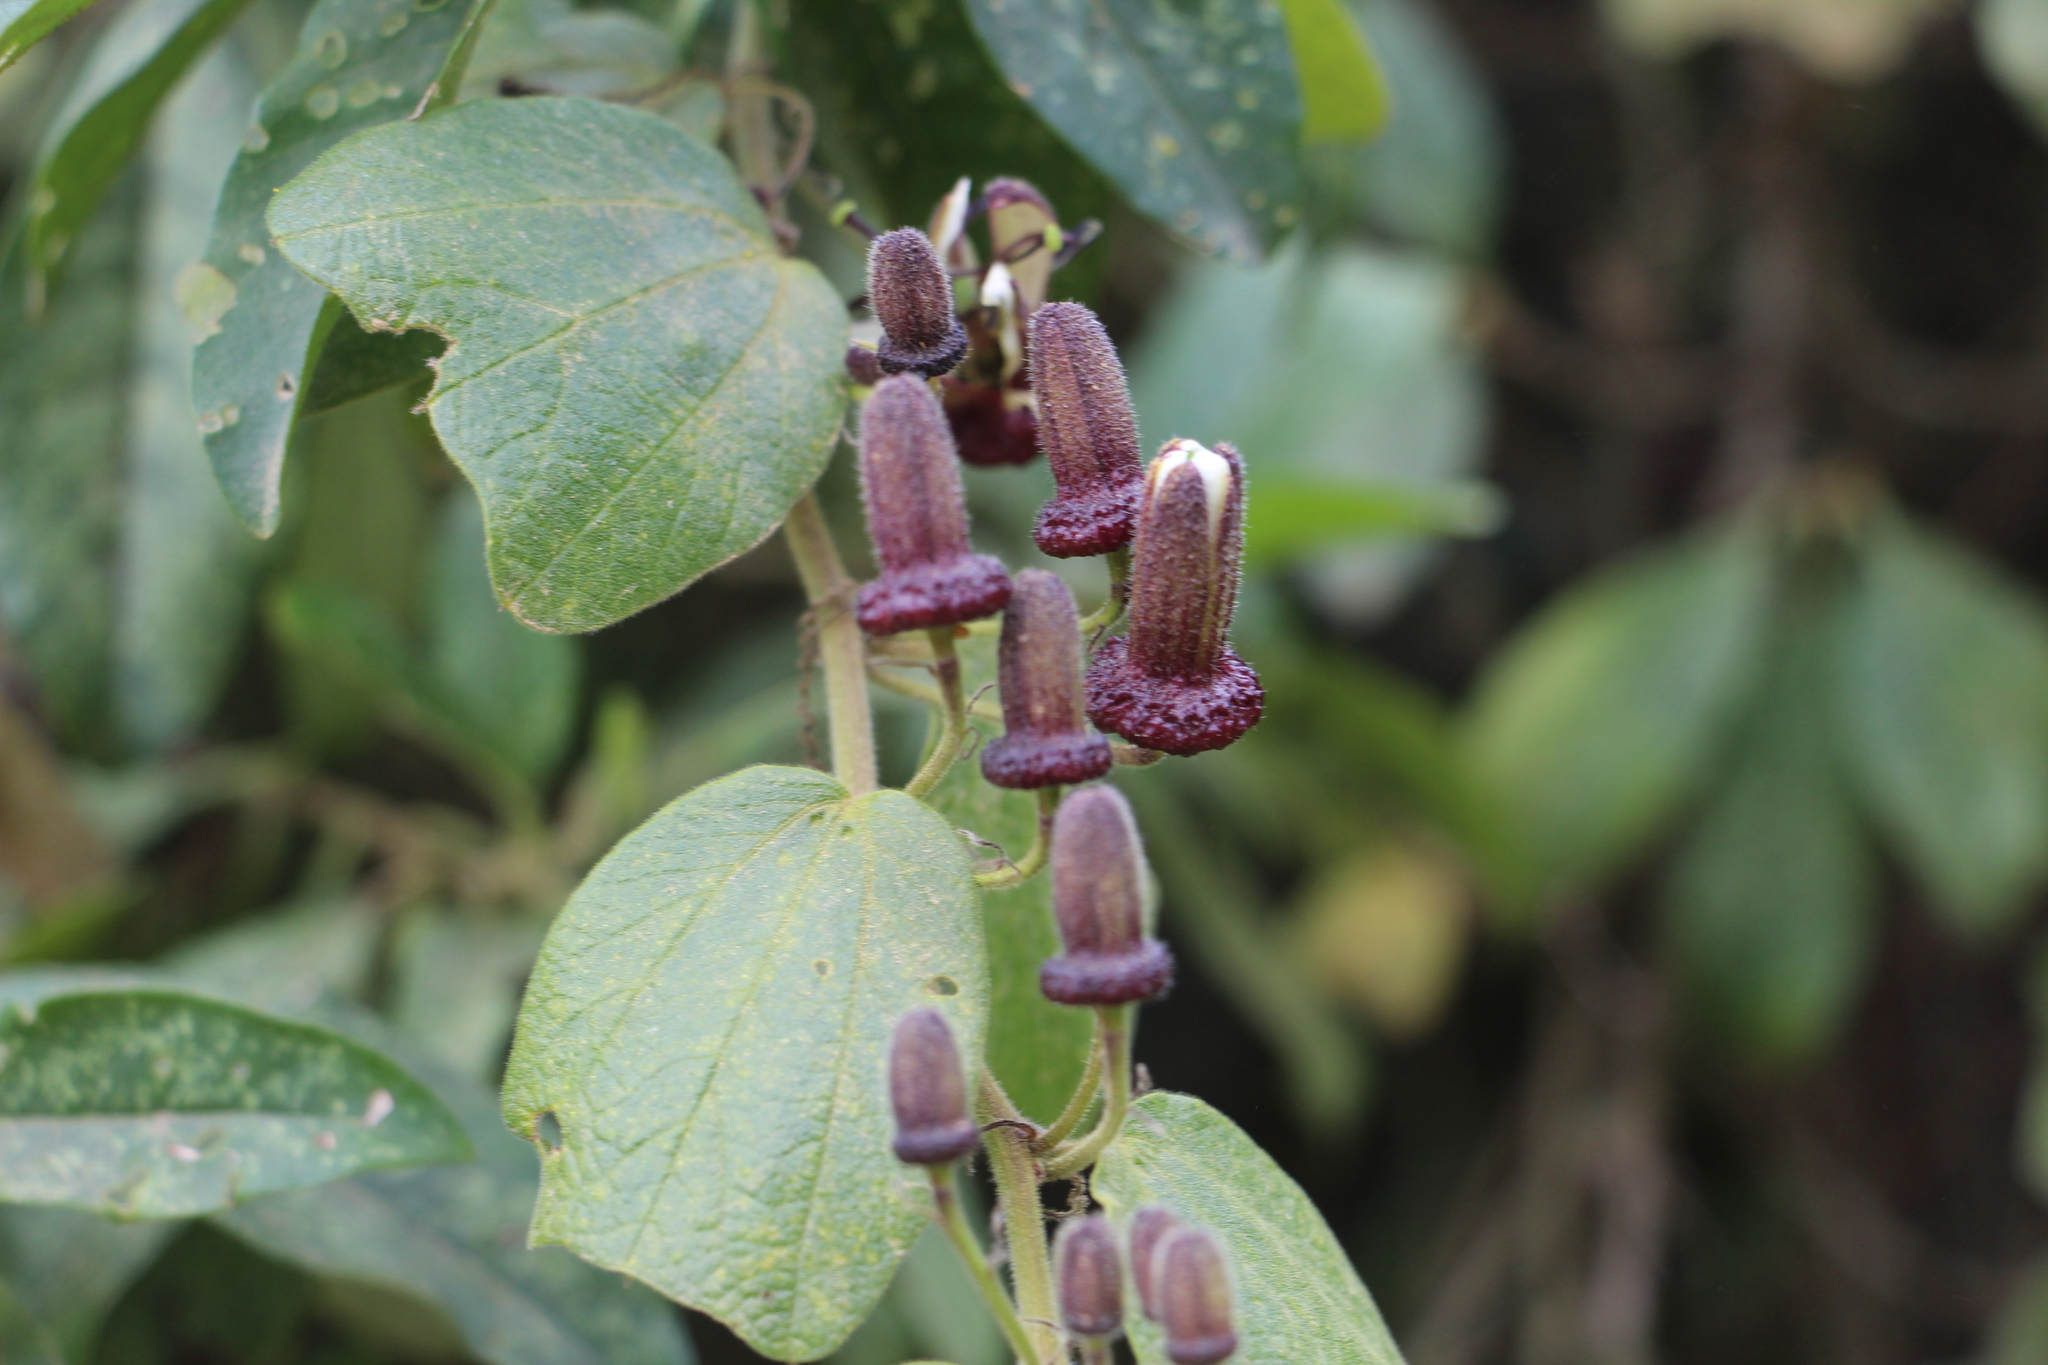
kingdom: Plantae
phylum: Tracheophyta
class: Magnoliopsida
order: Malpighiales
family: Passifloraceae
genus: Passiflora
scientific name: Passiflora bogotensis
